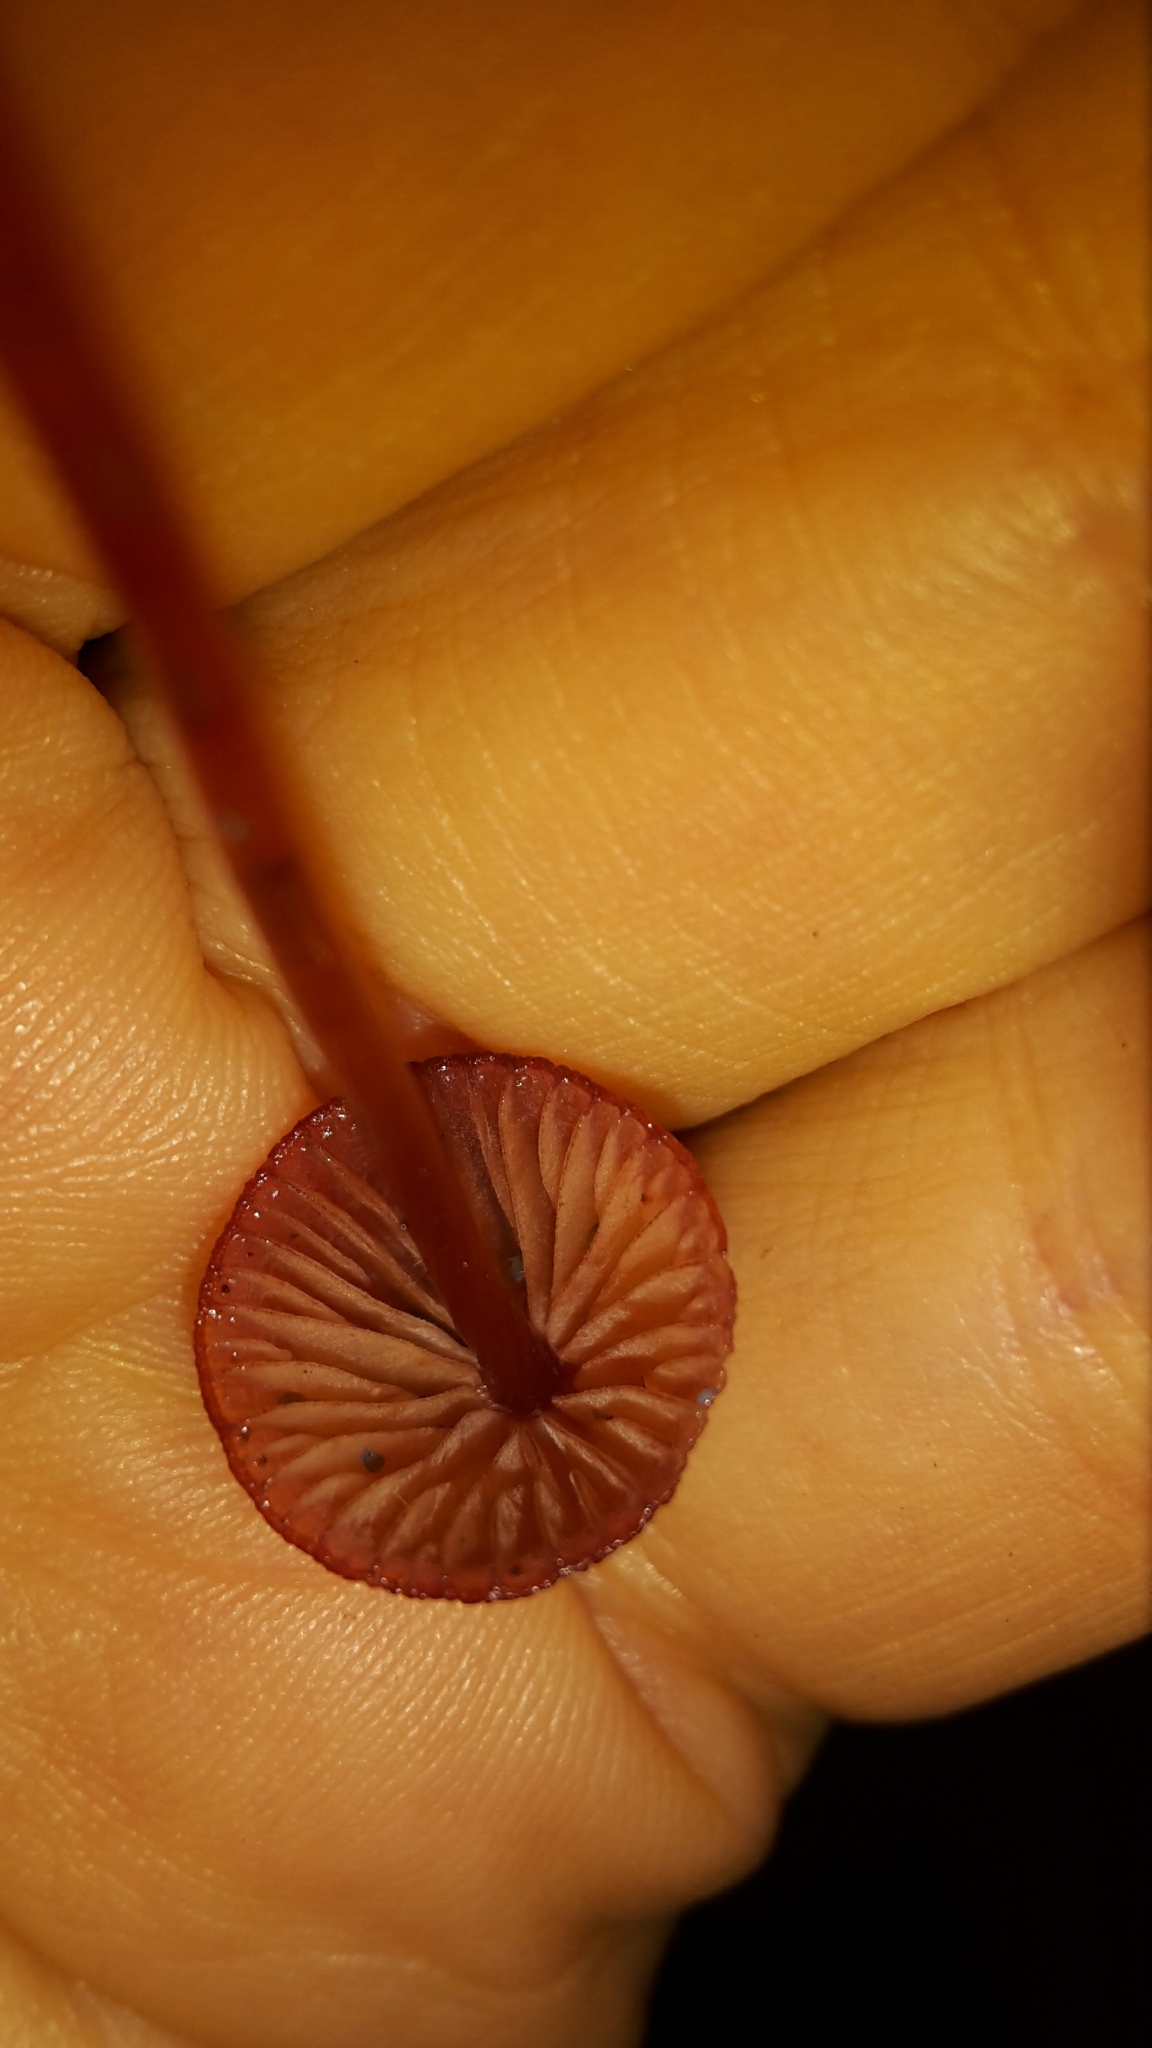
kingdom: Fungi
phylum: Basidiomycota
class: Agaricomycetes
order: Agaricales
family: Mycenaceae
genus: Mycena
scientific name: Mycena ura
